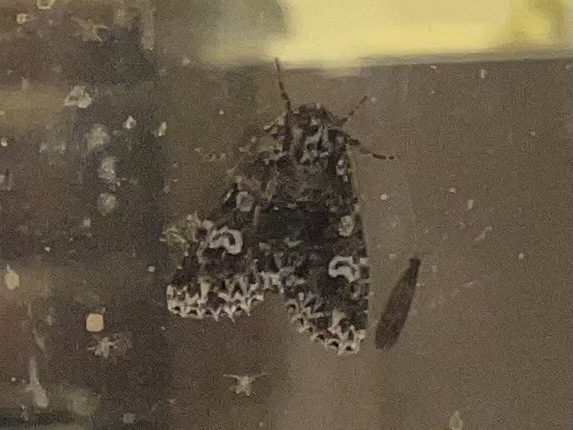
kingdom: Animalia
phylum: Arthropoda
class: Insecta
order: Lepidoptera
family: Noctuidae
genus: Melanchra
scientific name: Melanchra adjuncta
